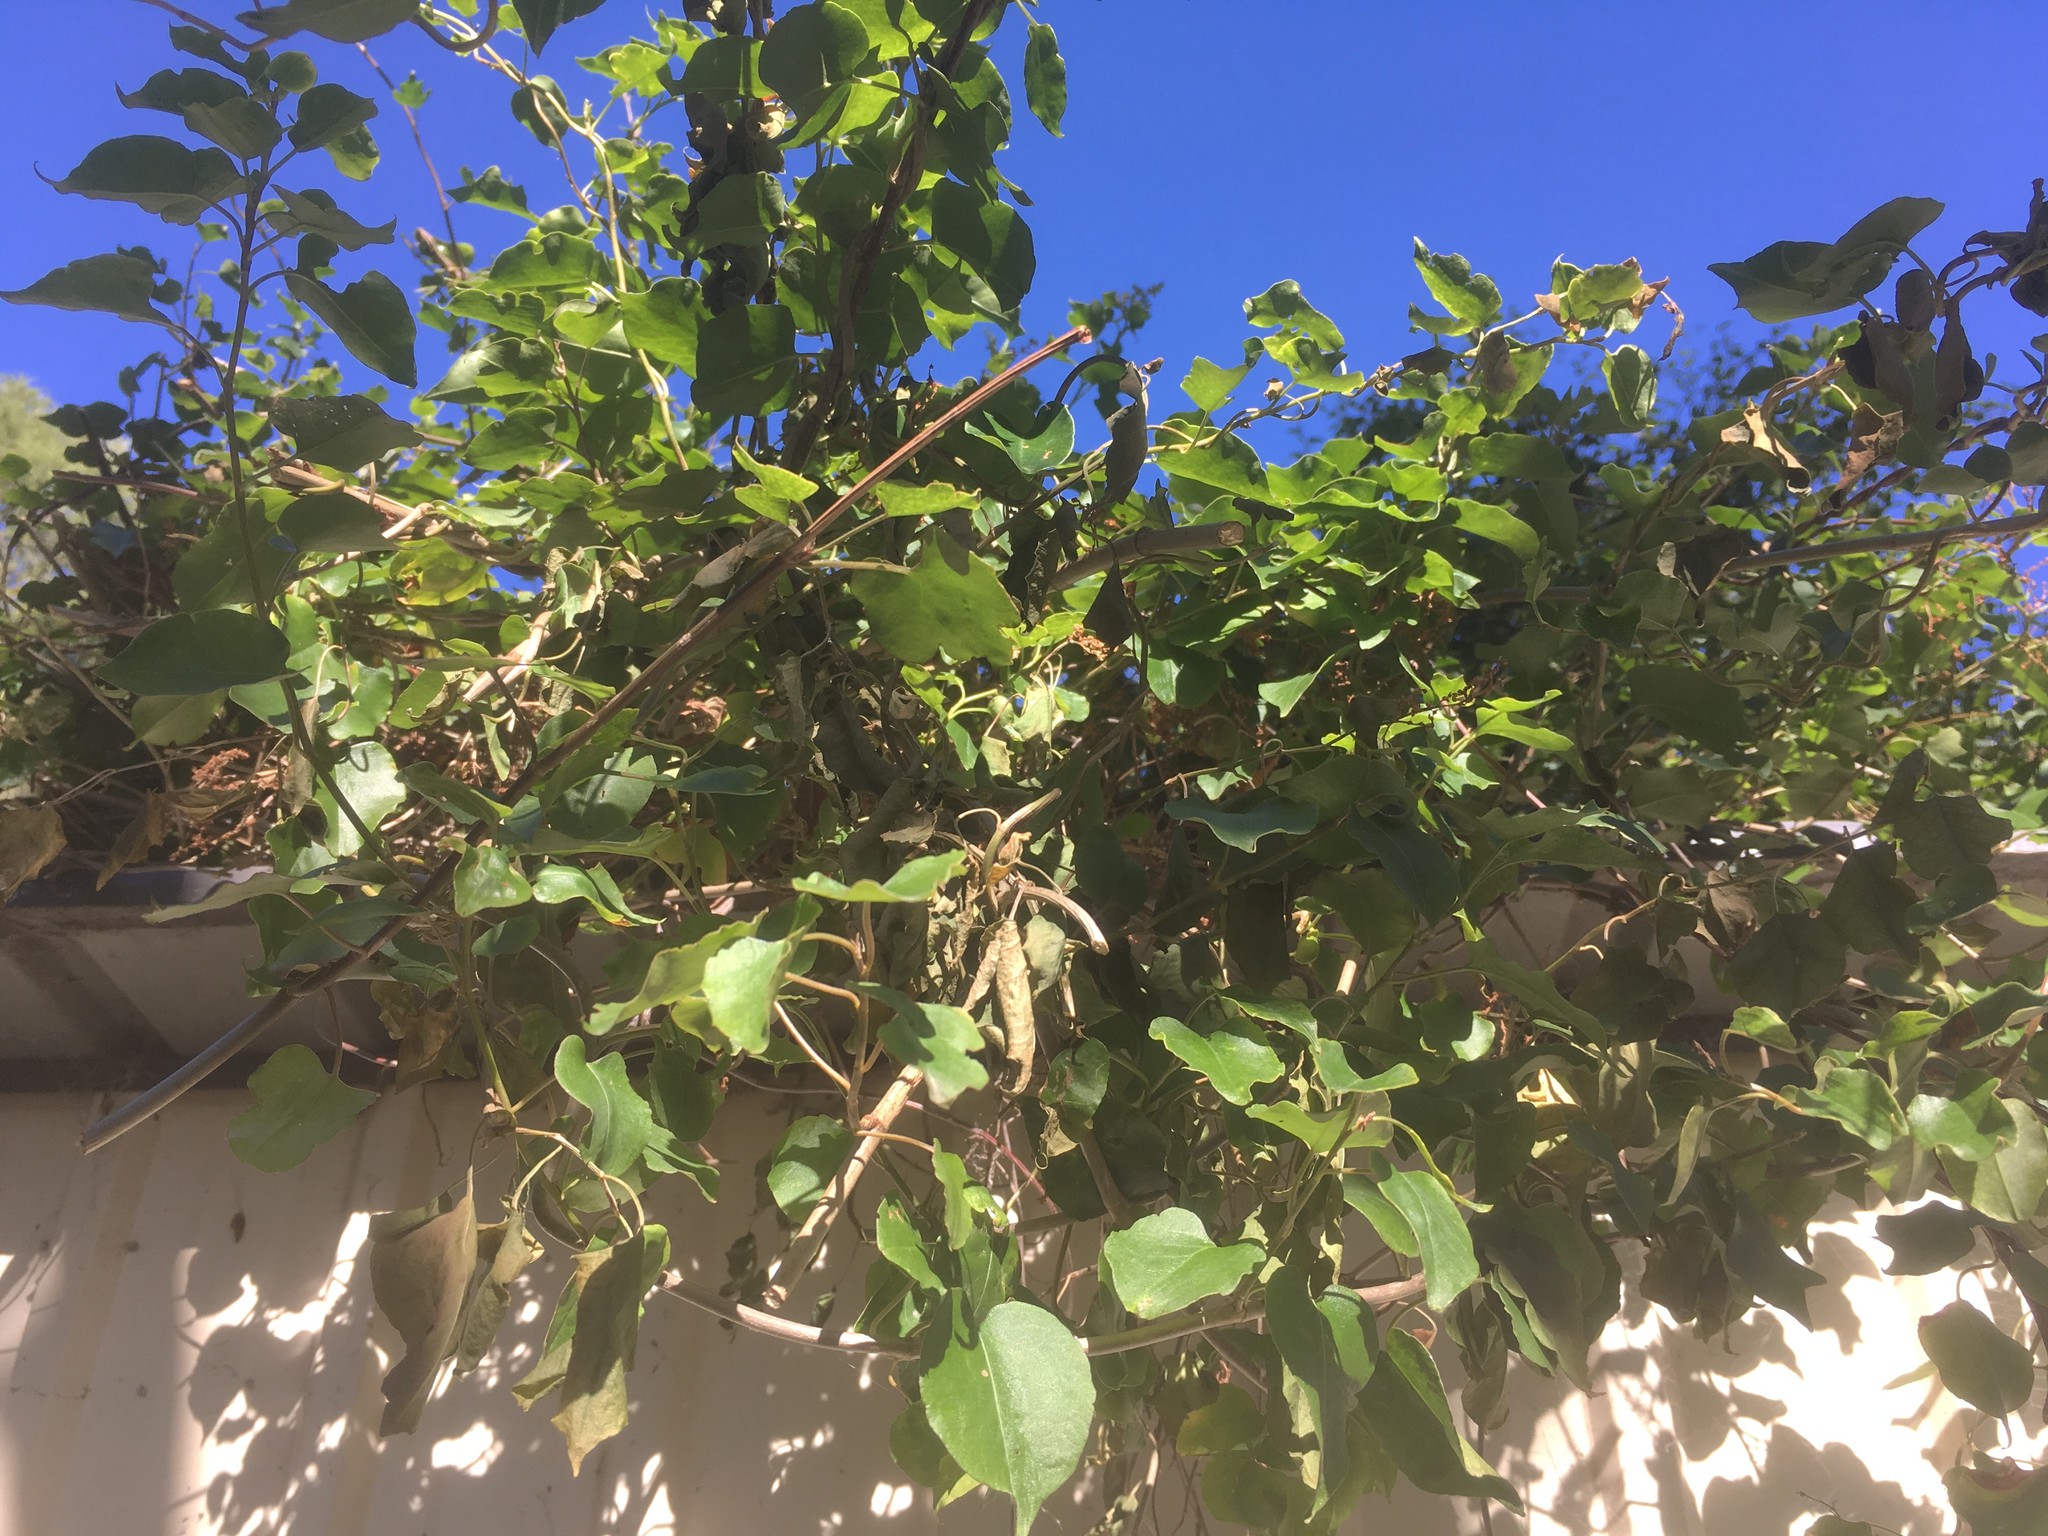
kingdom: Plantae
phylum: Tracheophyta
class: Magnoliopsida
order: Caryophyllales
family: Polygonaceae
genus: Muehlenbeckia
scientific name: Muehlenbeckia australis
